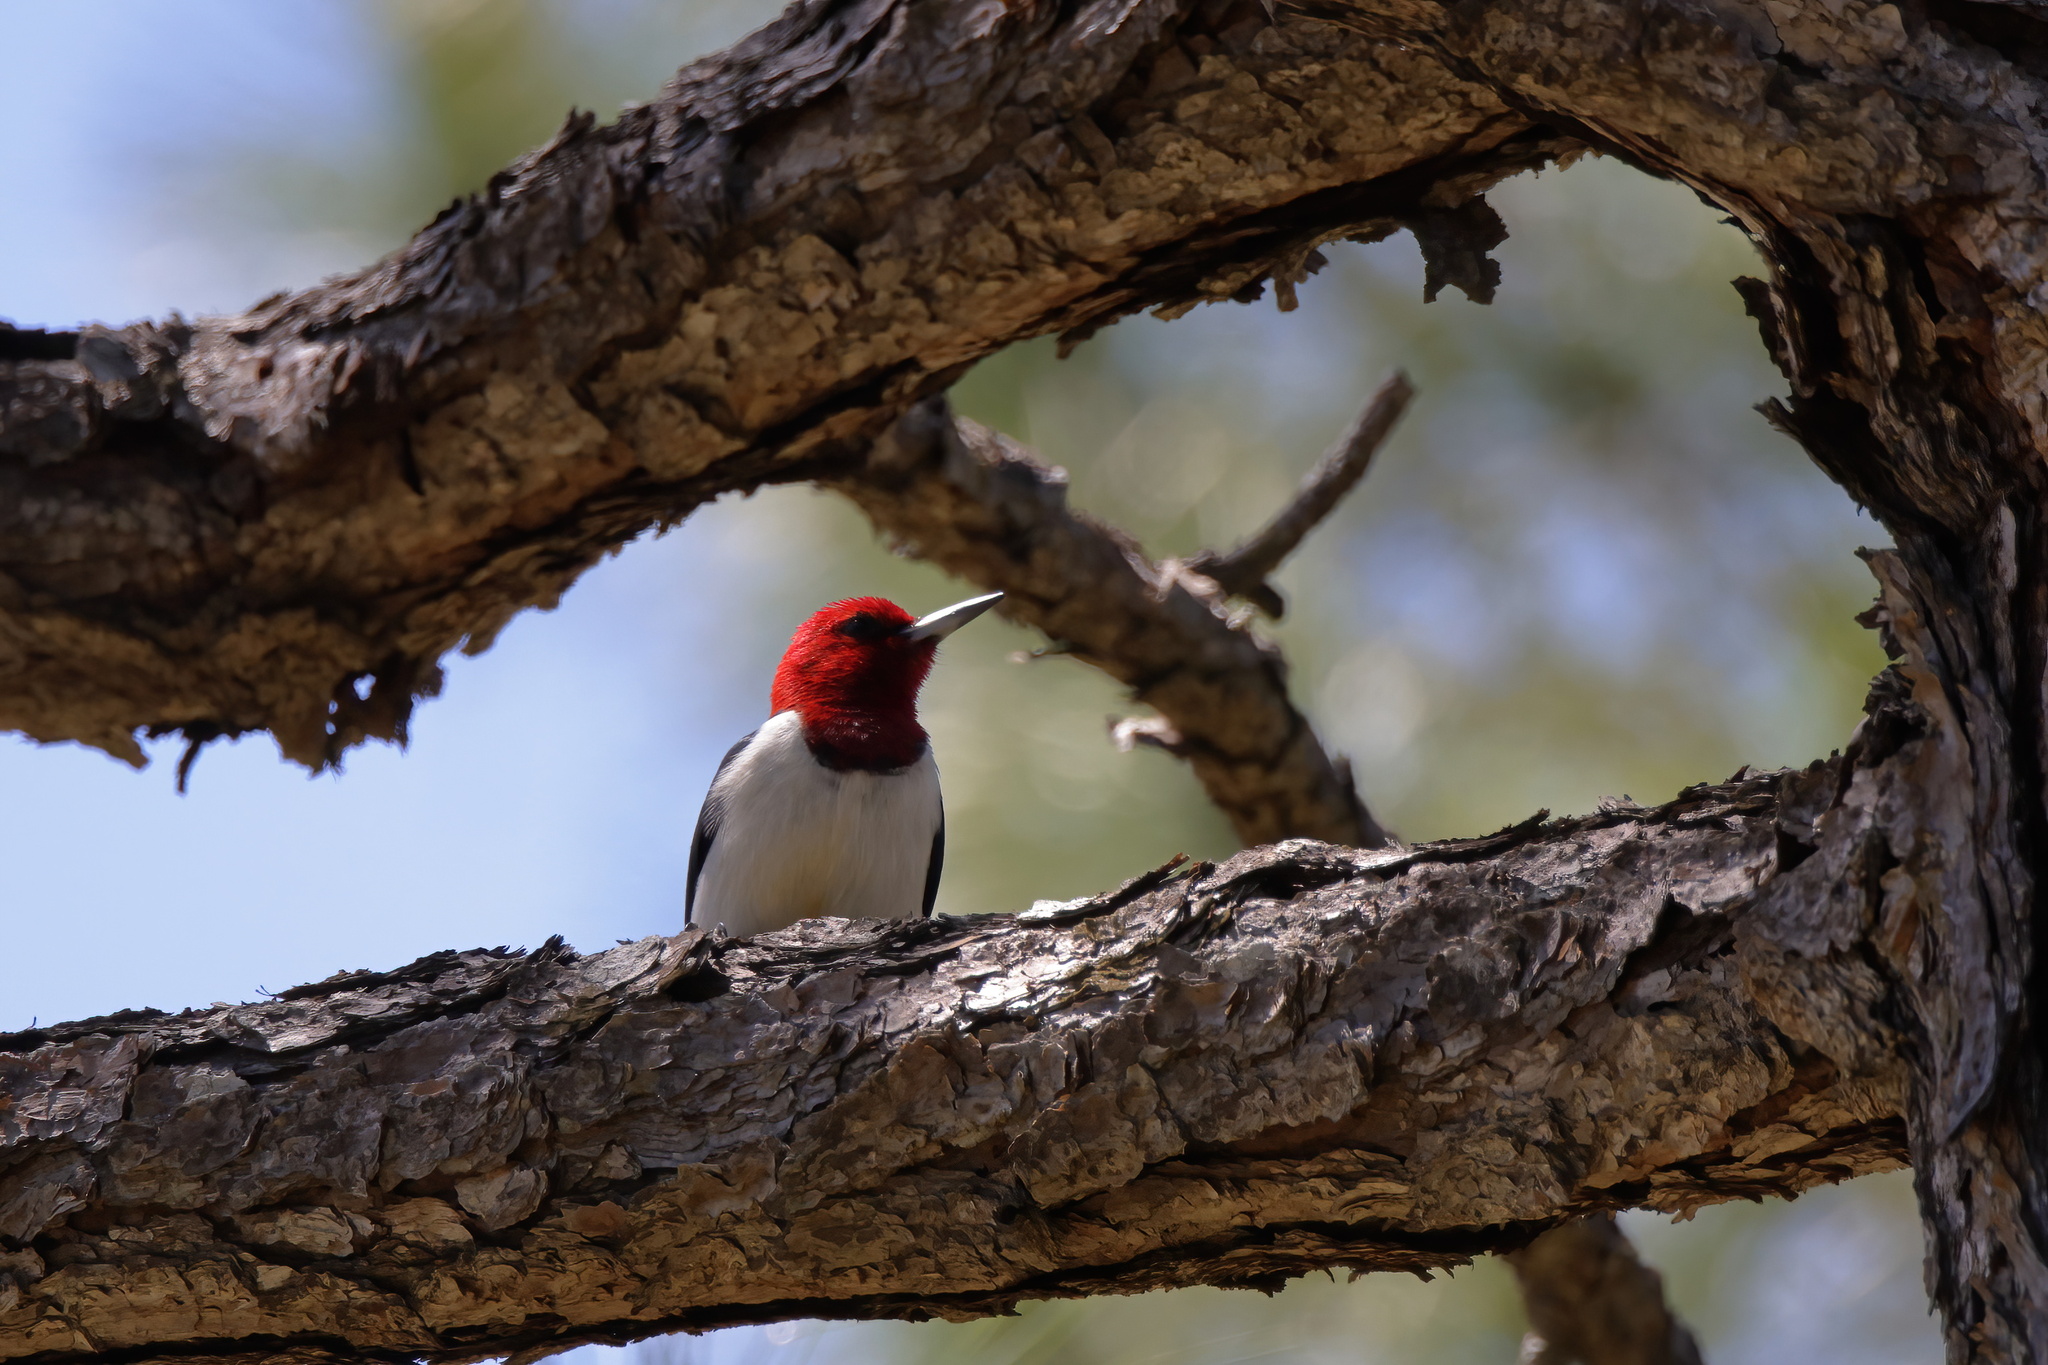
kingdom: Animalia
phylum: Chordata
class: Aves
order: Piciformes
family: Picidae
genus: Melanerpes
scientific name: Melanerpes erythrocephalus
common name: Red-headed woodpecker
